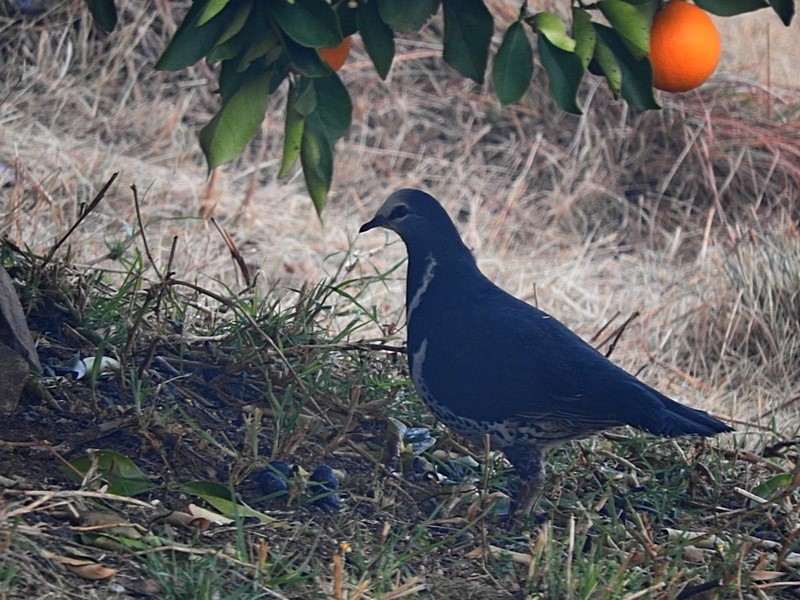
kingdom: Animalia
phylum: Chordata
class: Aves
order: Columbiformes
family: Columbidae
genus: Leucosarcia
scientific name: Leucosarcia melanoleuca
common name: Wonga pigeon
